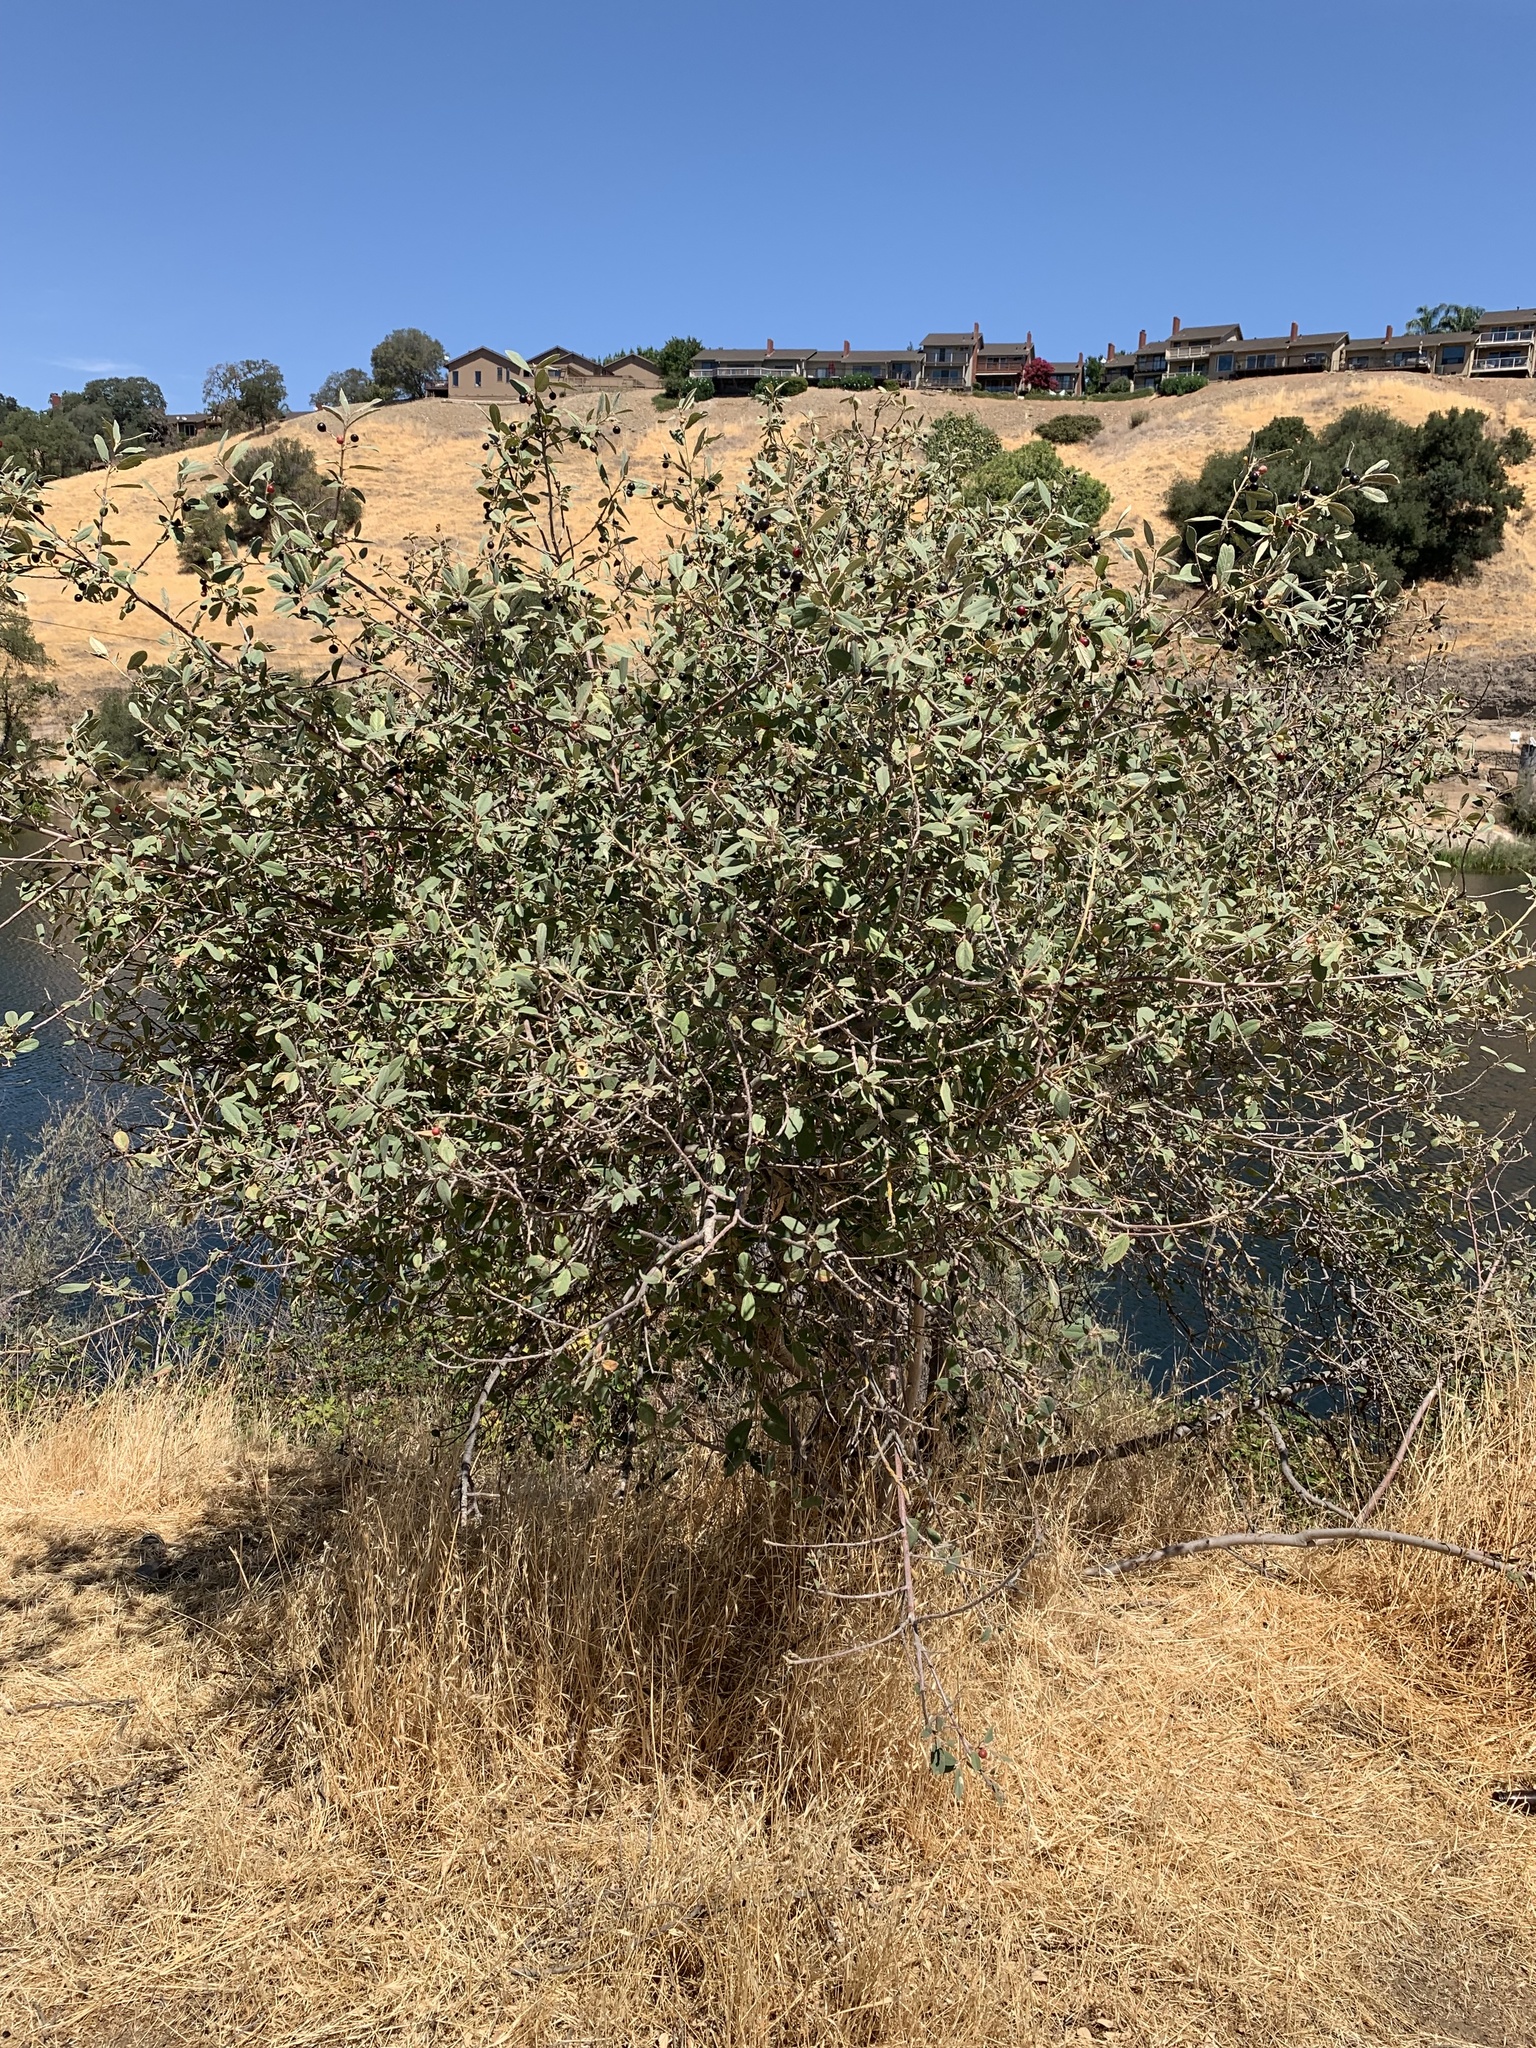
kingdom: Plantae
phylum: Tracheophyta
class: Magnoliopsida
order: Rosales
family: Rhamnaceae
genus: Frangula
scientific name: Frangula californica
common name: California buckthorn
